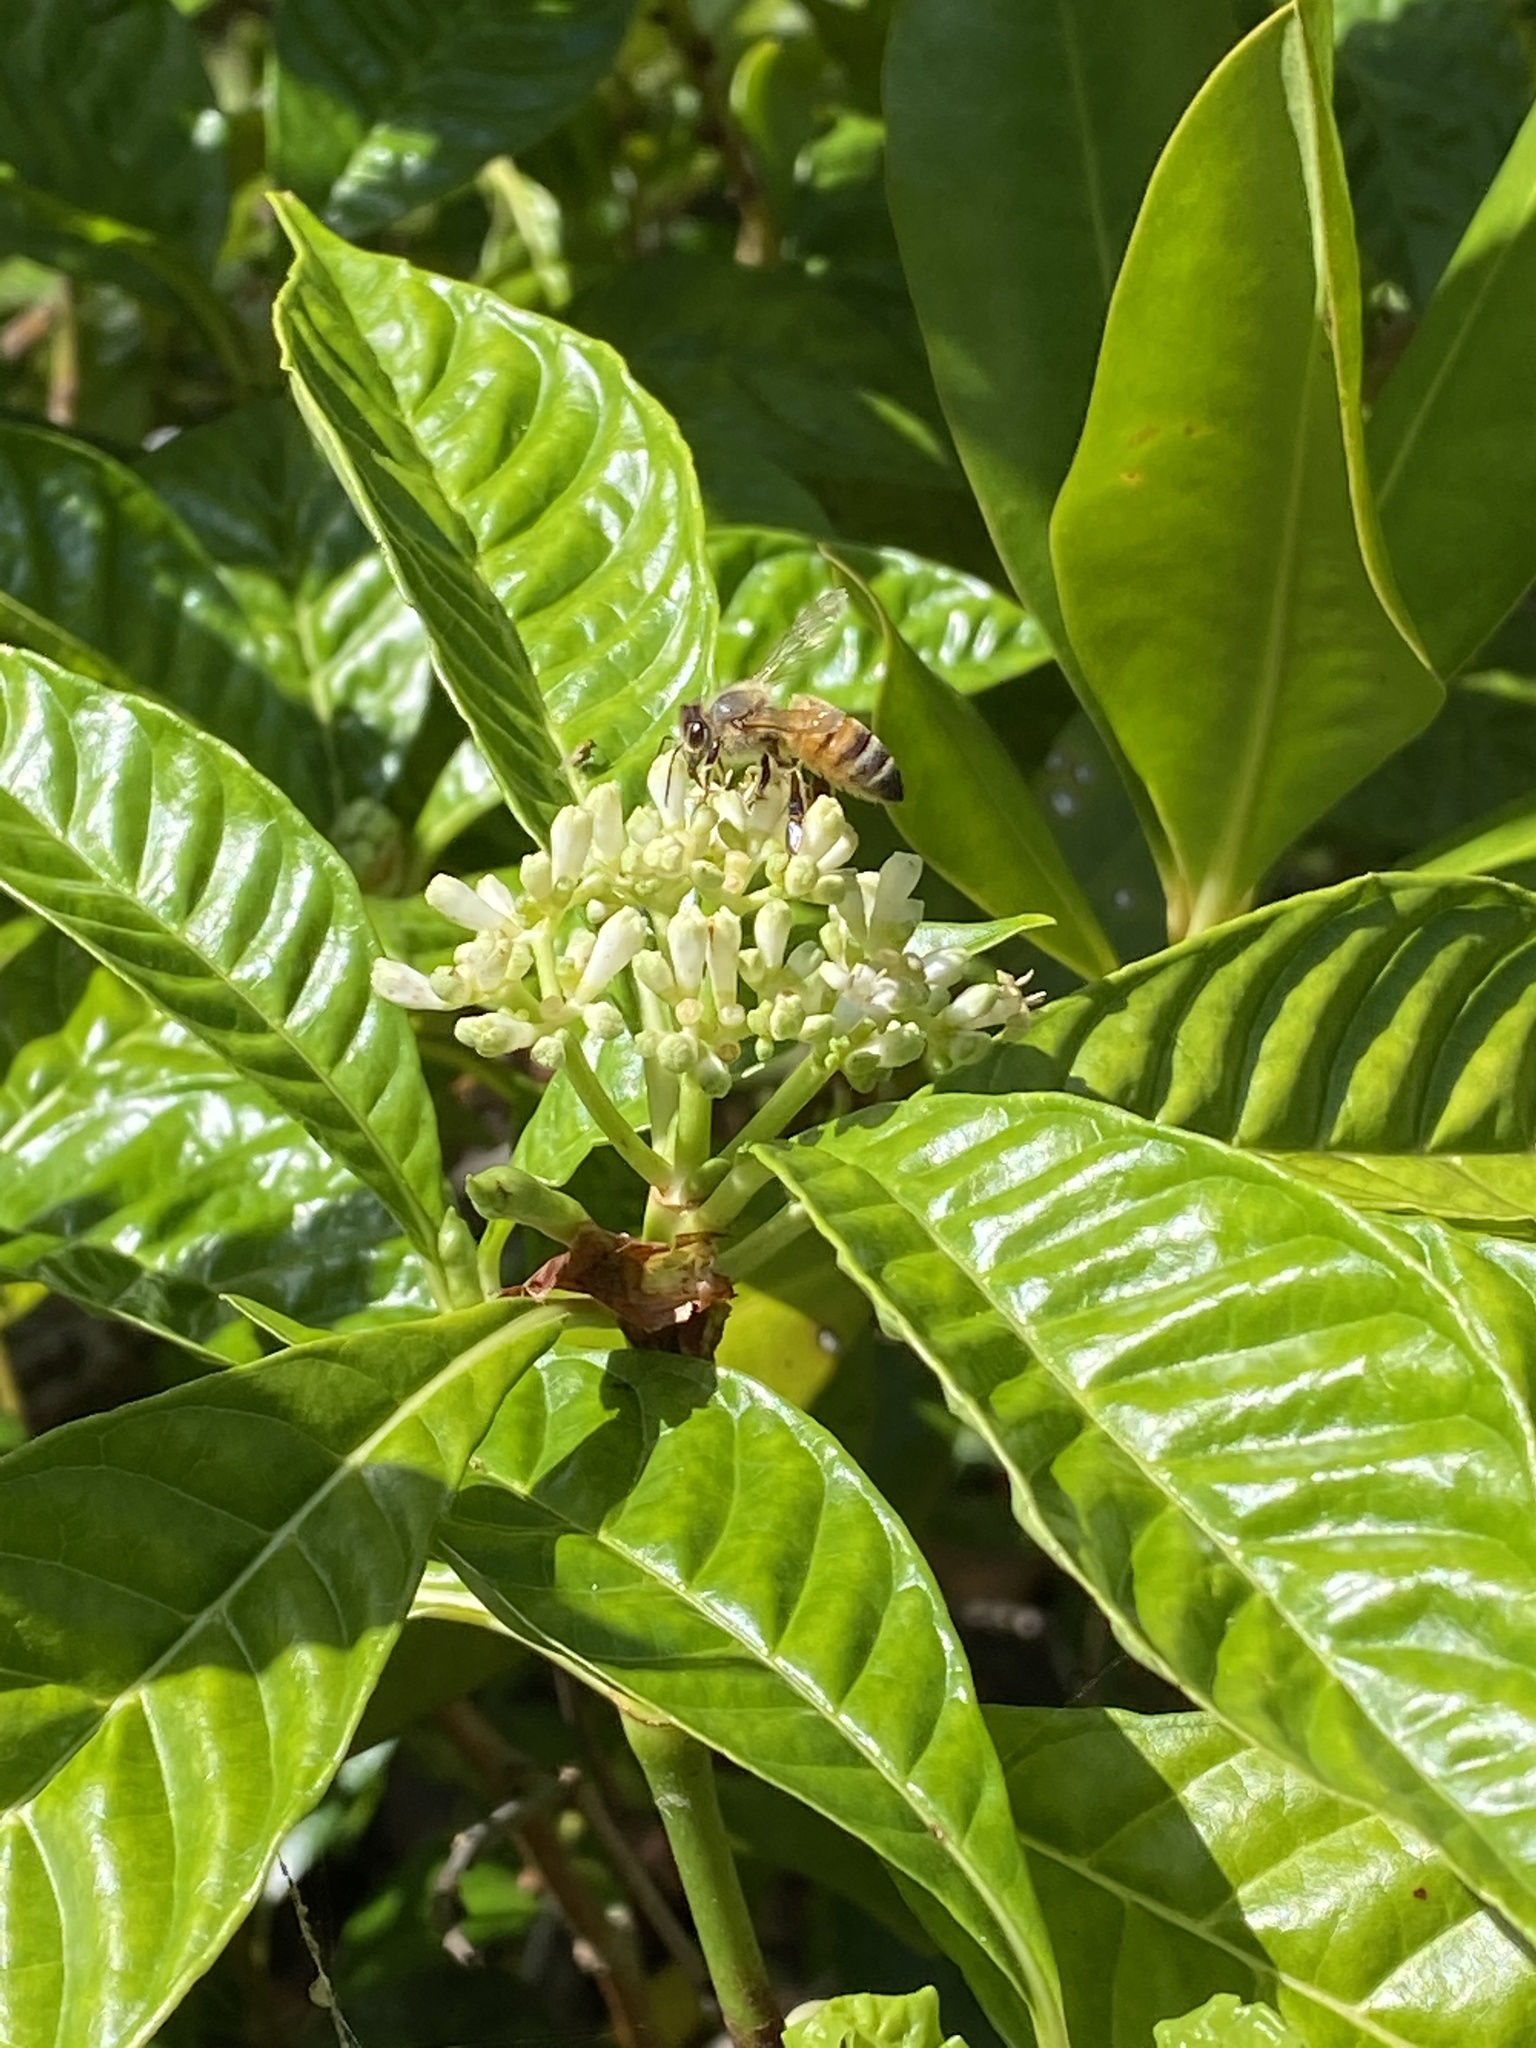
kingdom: Animalia
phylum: Arthropoda
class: Insecta
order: Hymenoptera
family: Apidae
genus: Apis
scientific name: Apis mellifera
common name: Honey bee
